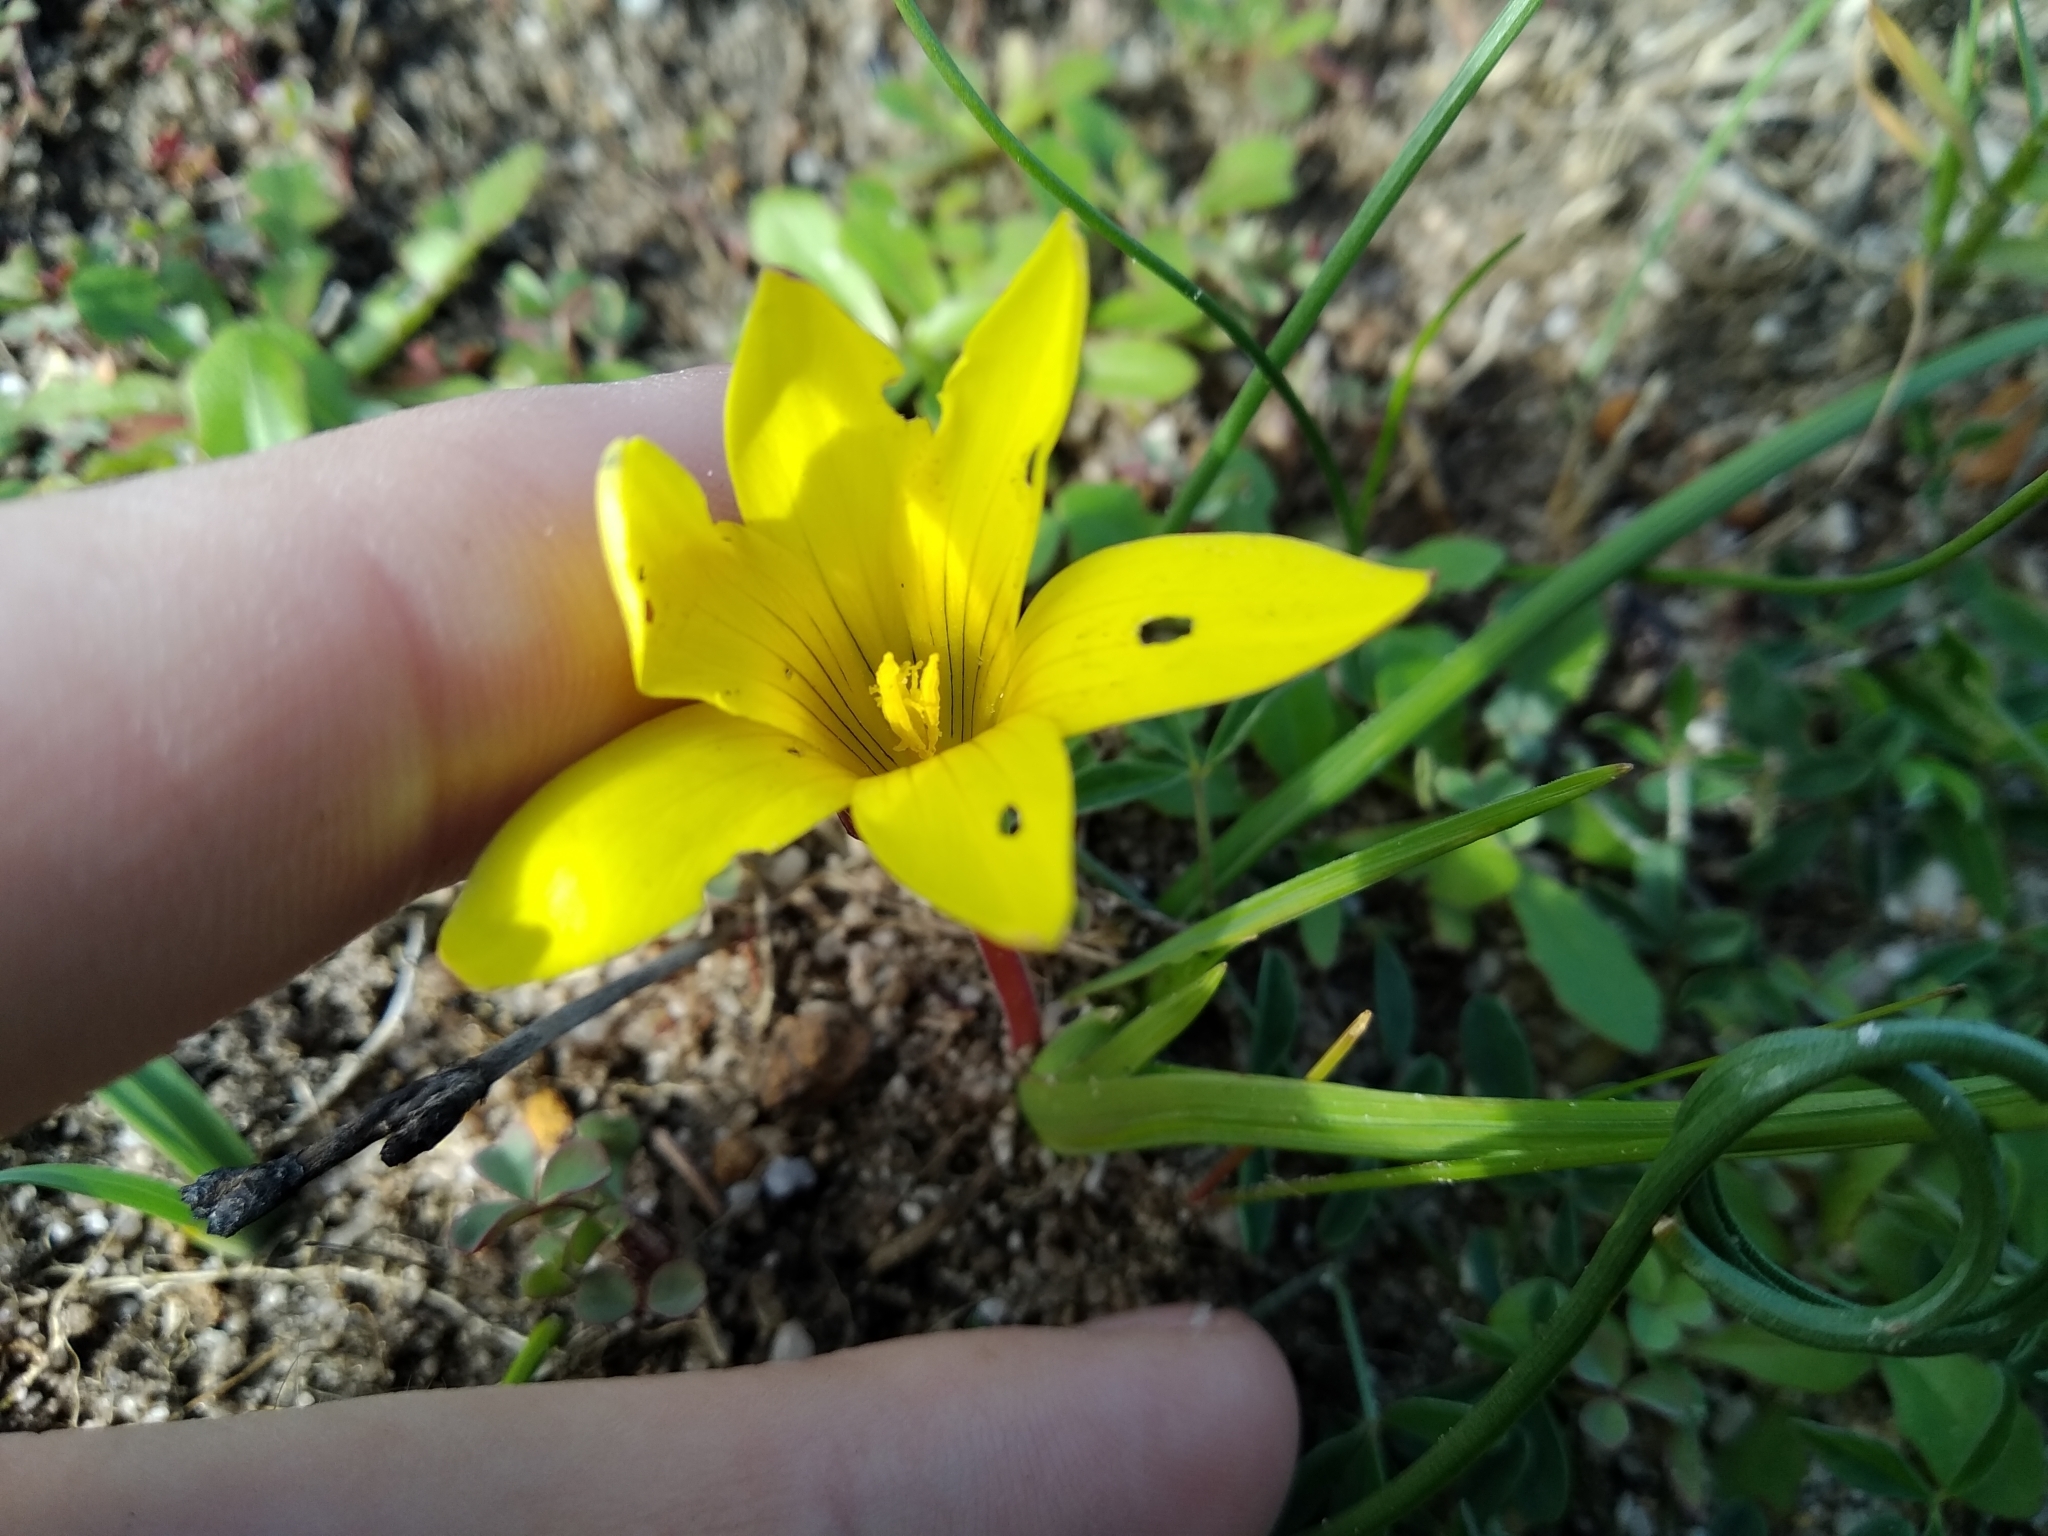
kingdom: Plantae
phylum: Tracheophyta
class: Liliopsida
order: Asparagales
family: Iridaceae
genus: Romulea
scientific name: Romulea flava
